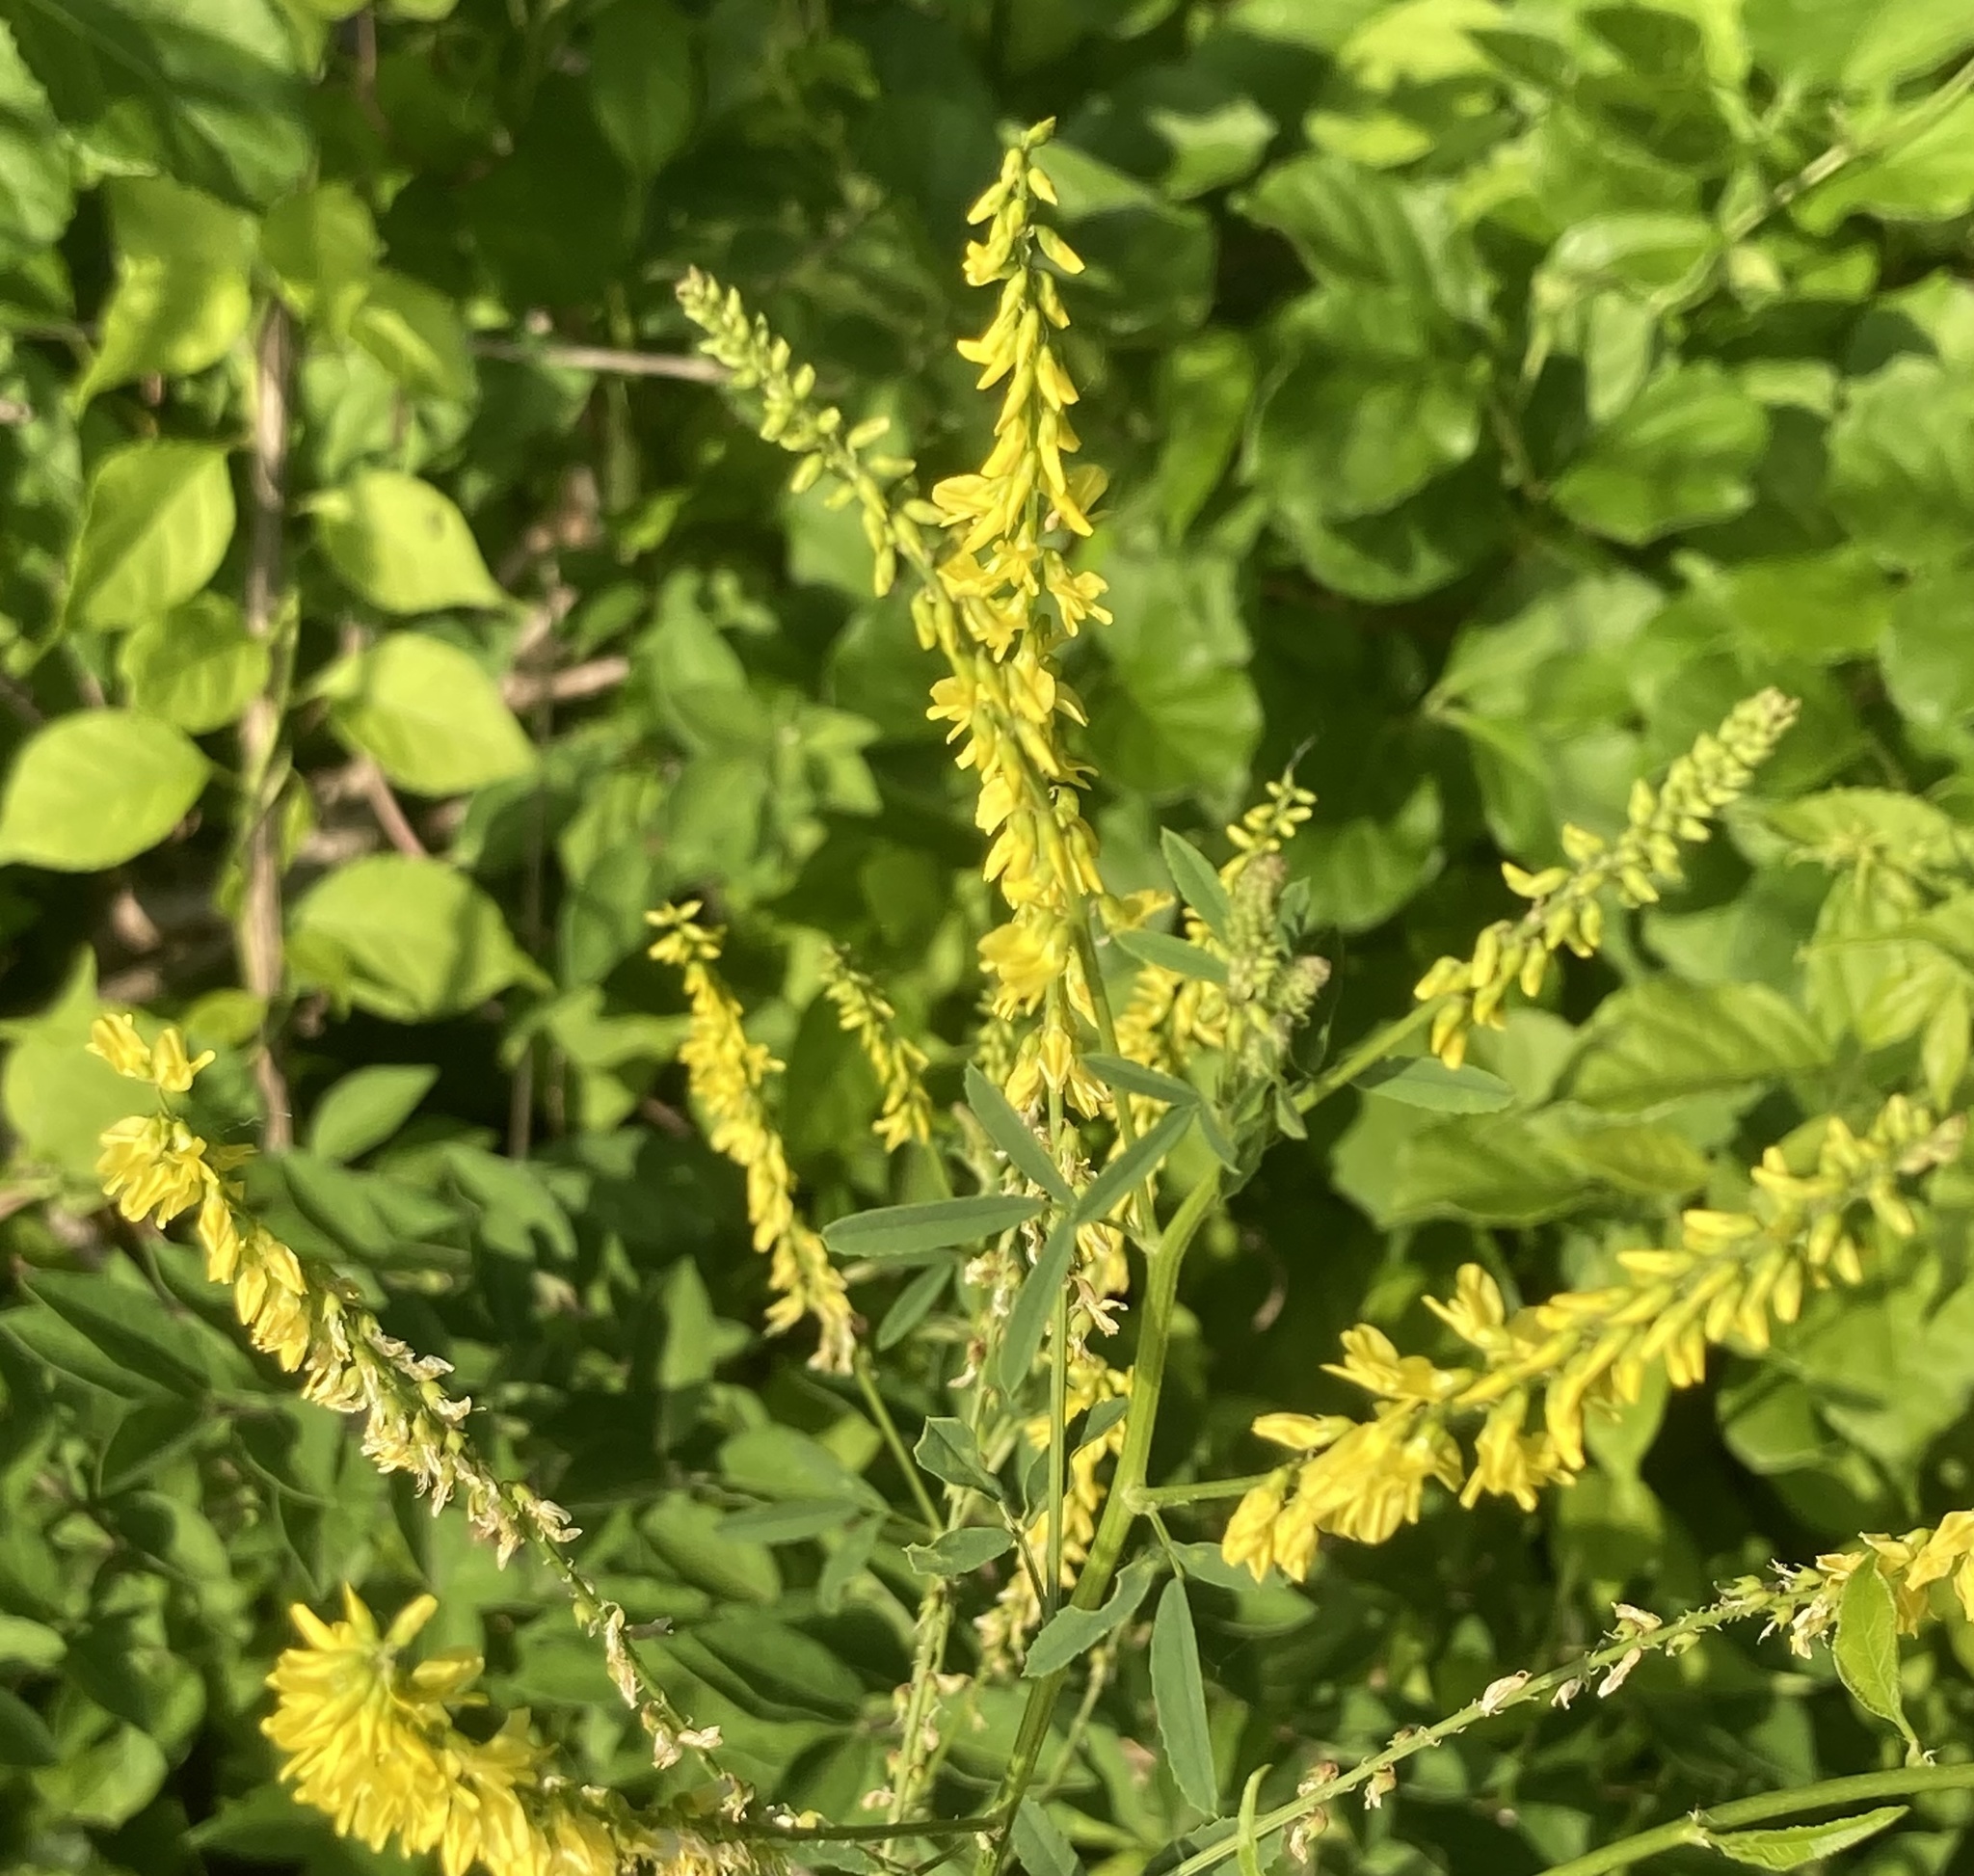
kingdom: Plantae
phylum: Tracheophyta
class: Magnoliopsida
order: Fabales
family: Fabaceae
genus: Melilotus
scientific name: Melilotus officinalis
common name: Sweetclover
